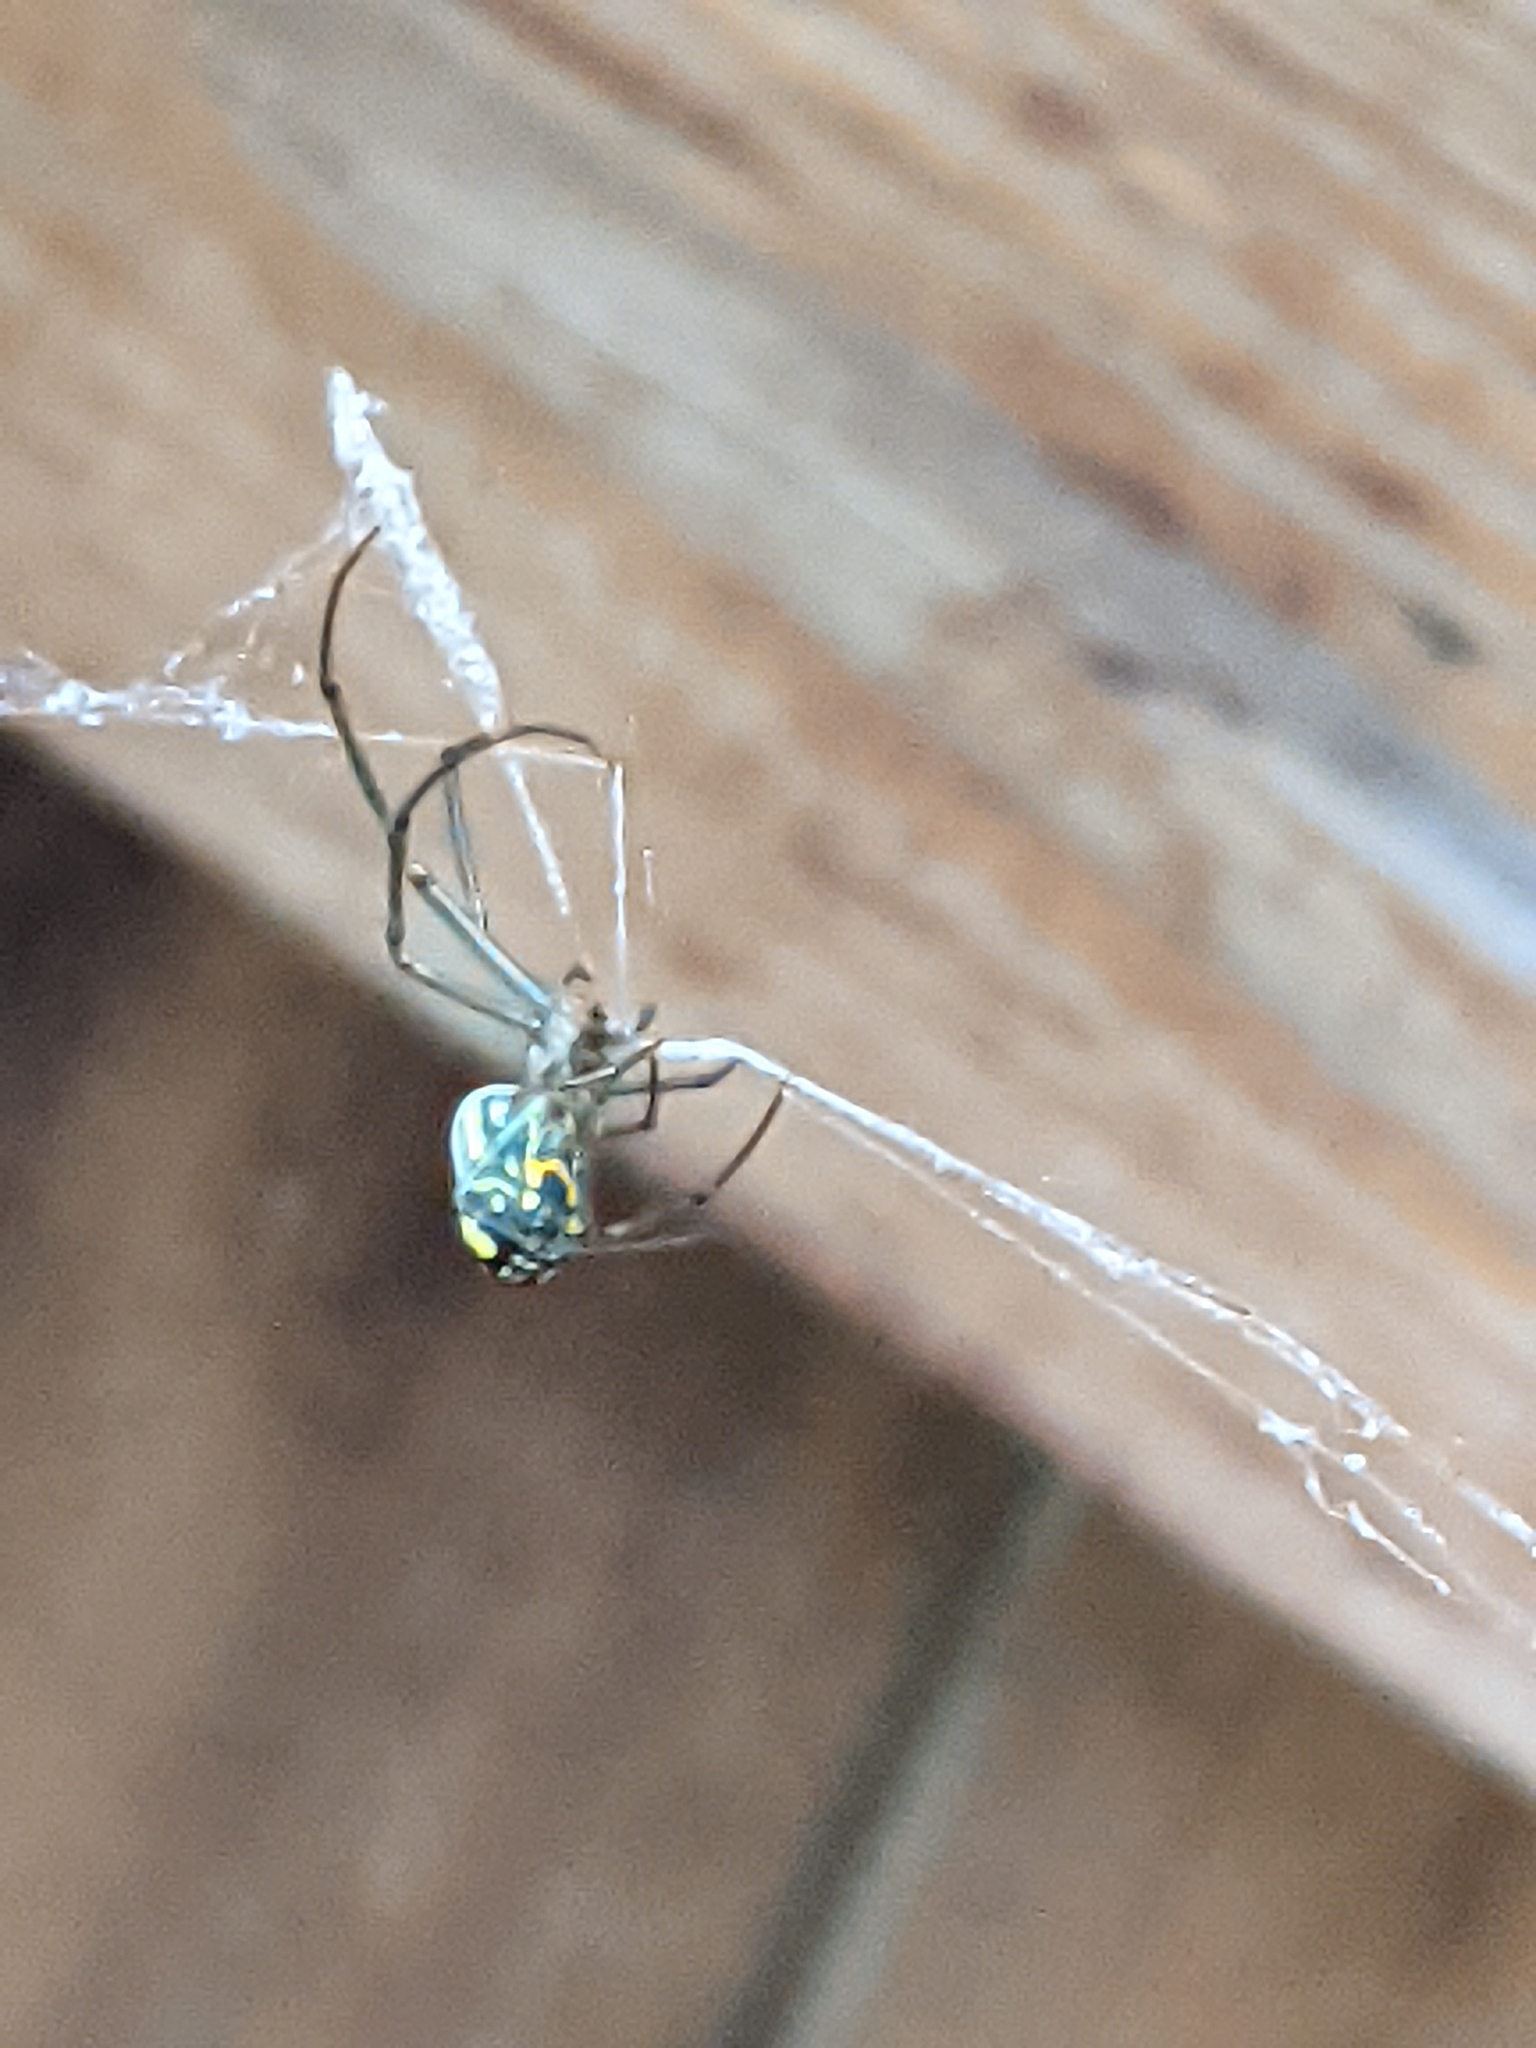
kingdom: Animalia
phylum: Arthropoda
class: Arachnida
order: Araneae
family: Tetragnathidae
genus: Leucauge
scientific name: Leucauge venusta
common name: Longjawed orb weavers
